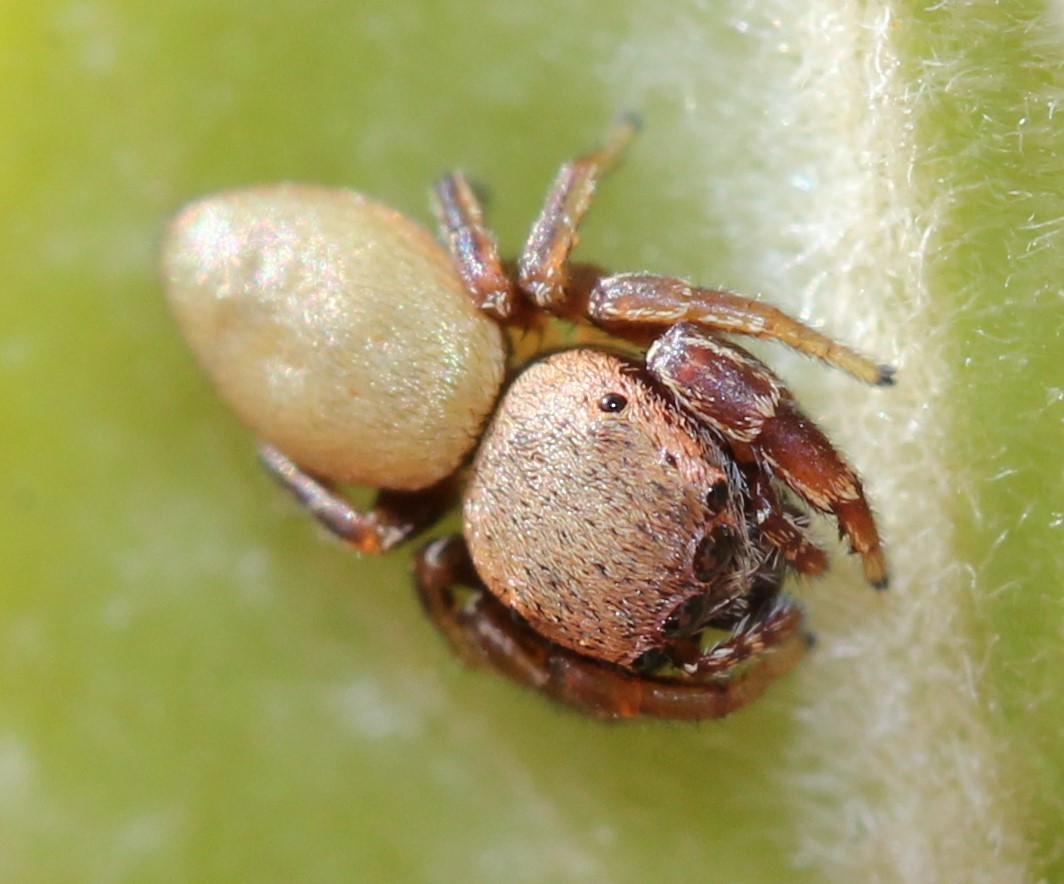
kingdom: Animalia
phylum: Arthropoda
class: Arachnida
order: Araneae
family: Salticidae
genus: Beata
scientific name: Beata wickhami
